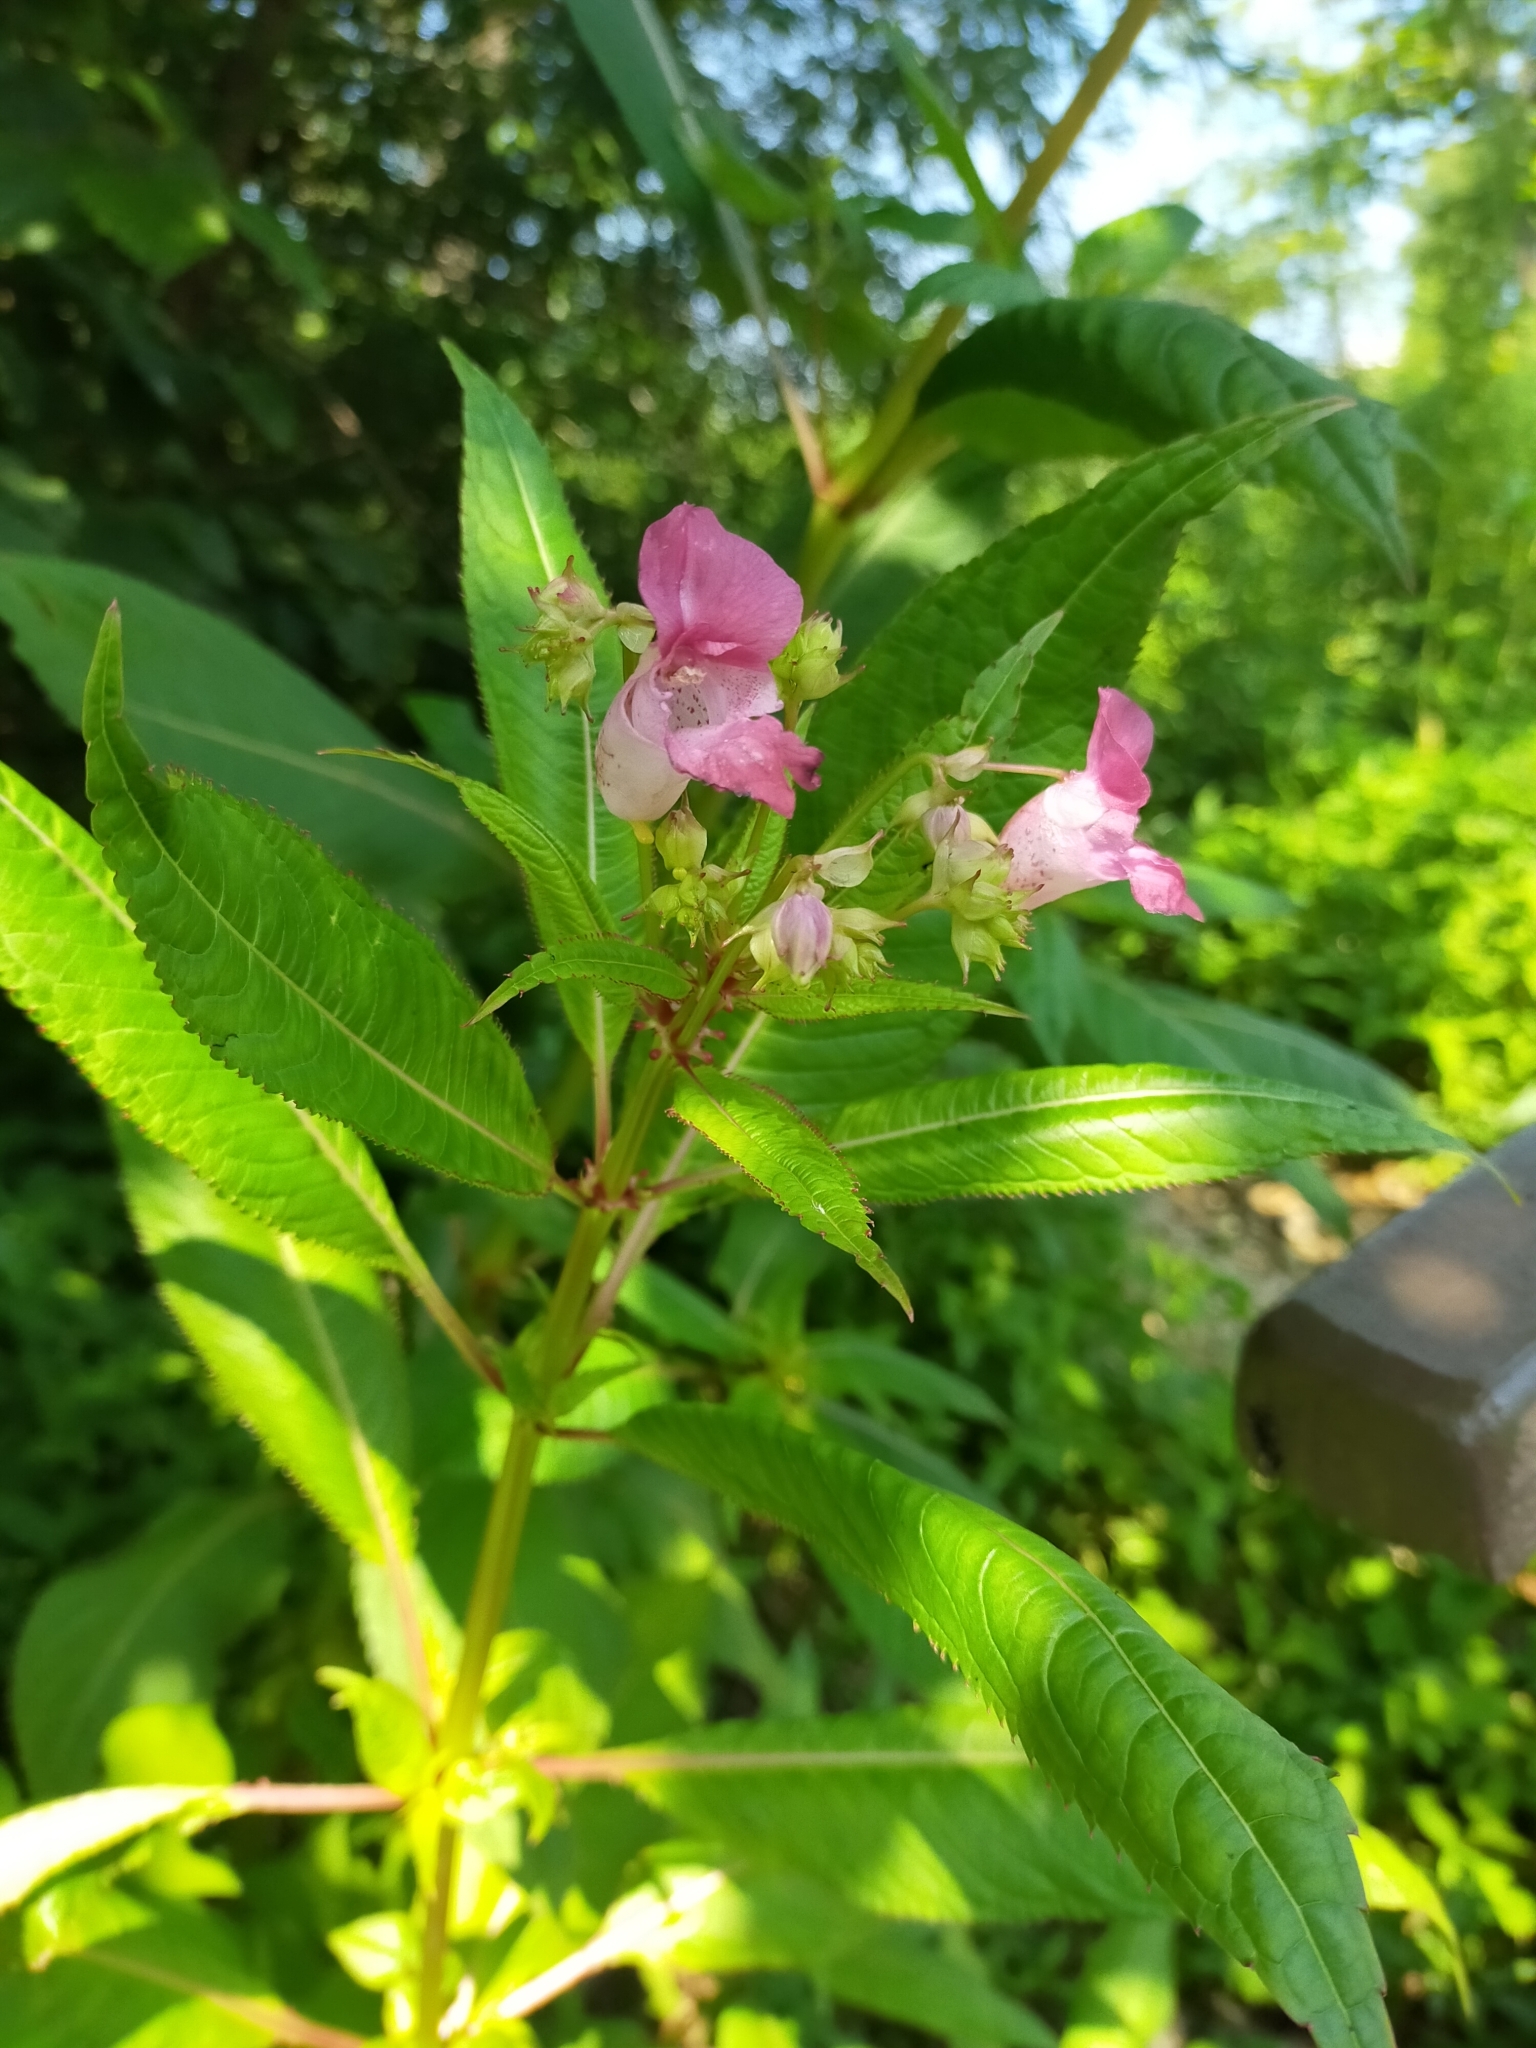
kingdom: Plantae
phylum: Tracheophyta
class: Magnoliopsida
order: Ericales
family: Balsaminaceae
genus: Impatiens
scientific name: Impatiens glandulifera
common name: Himalayan balsam
